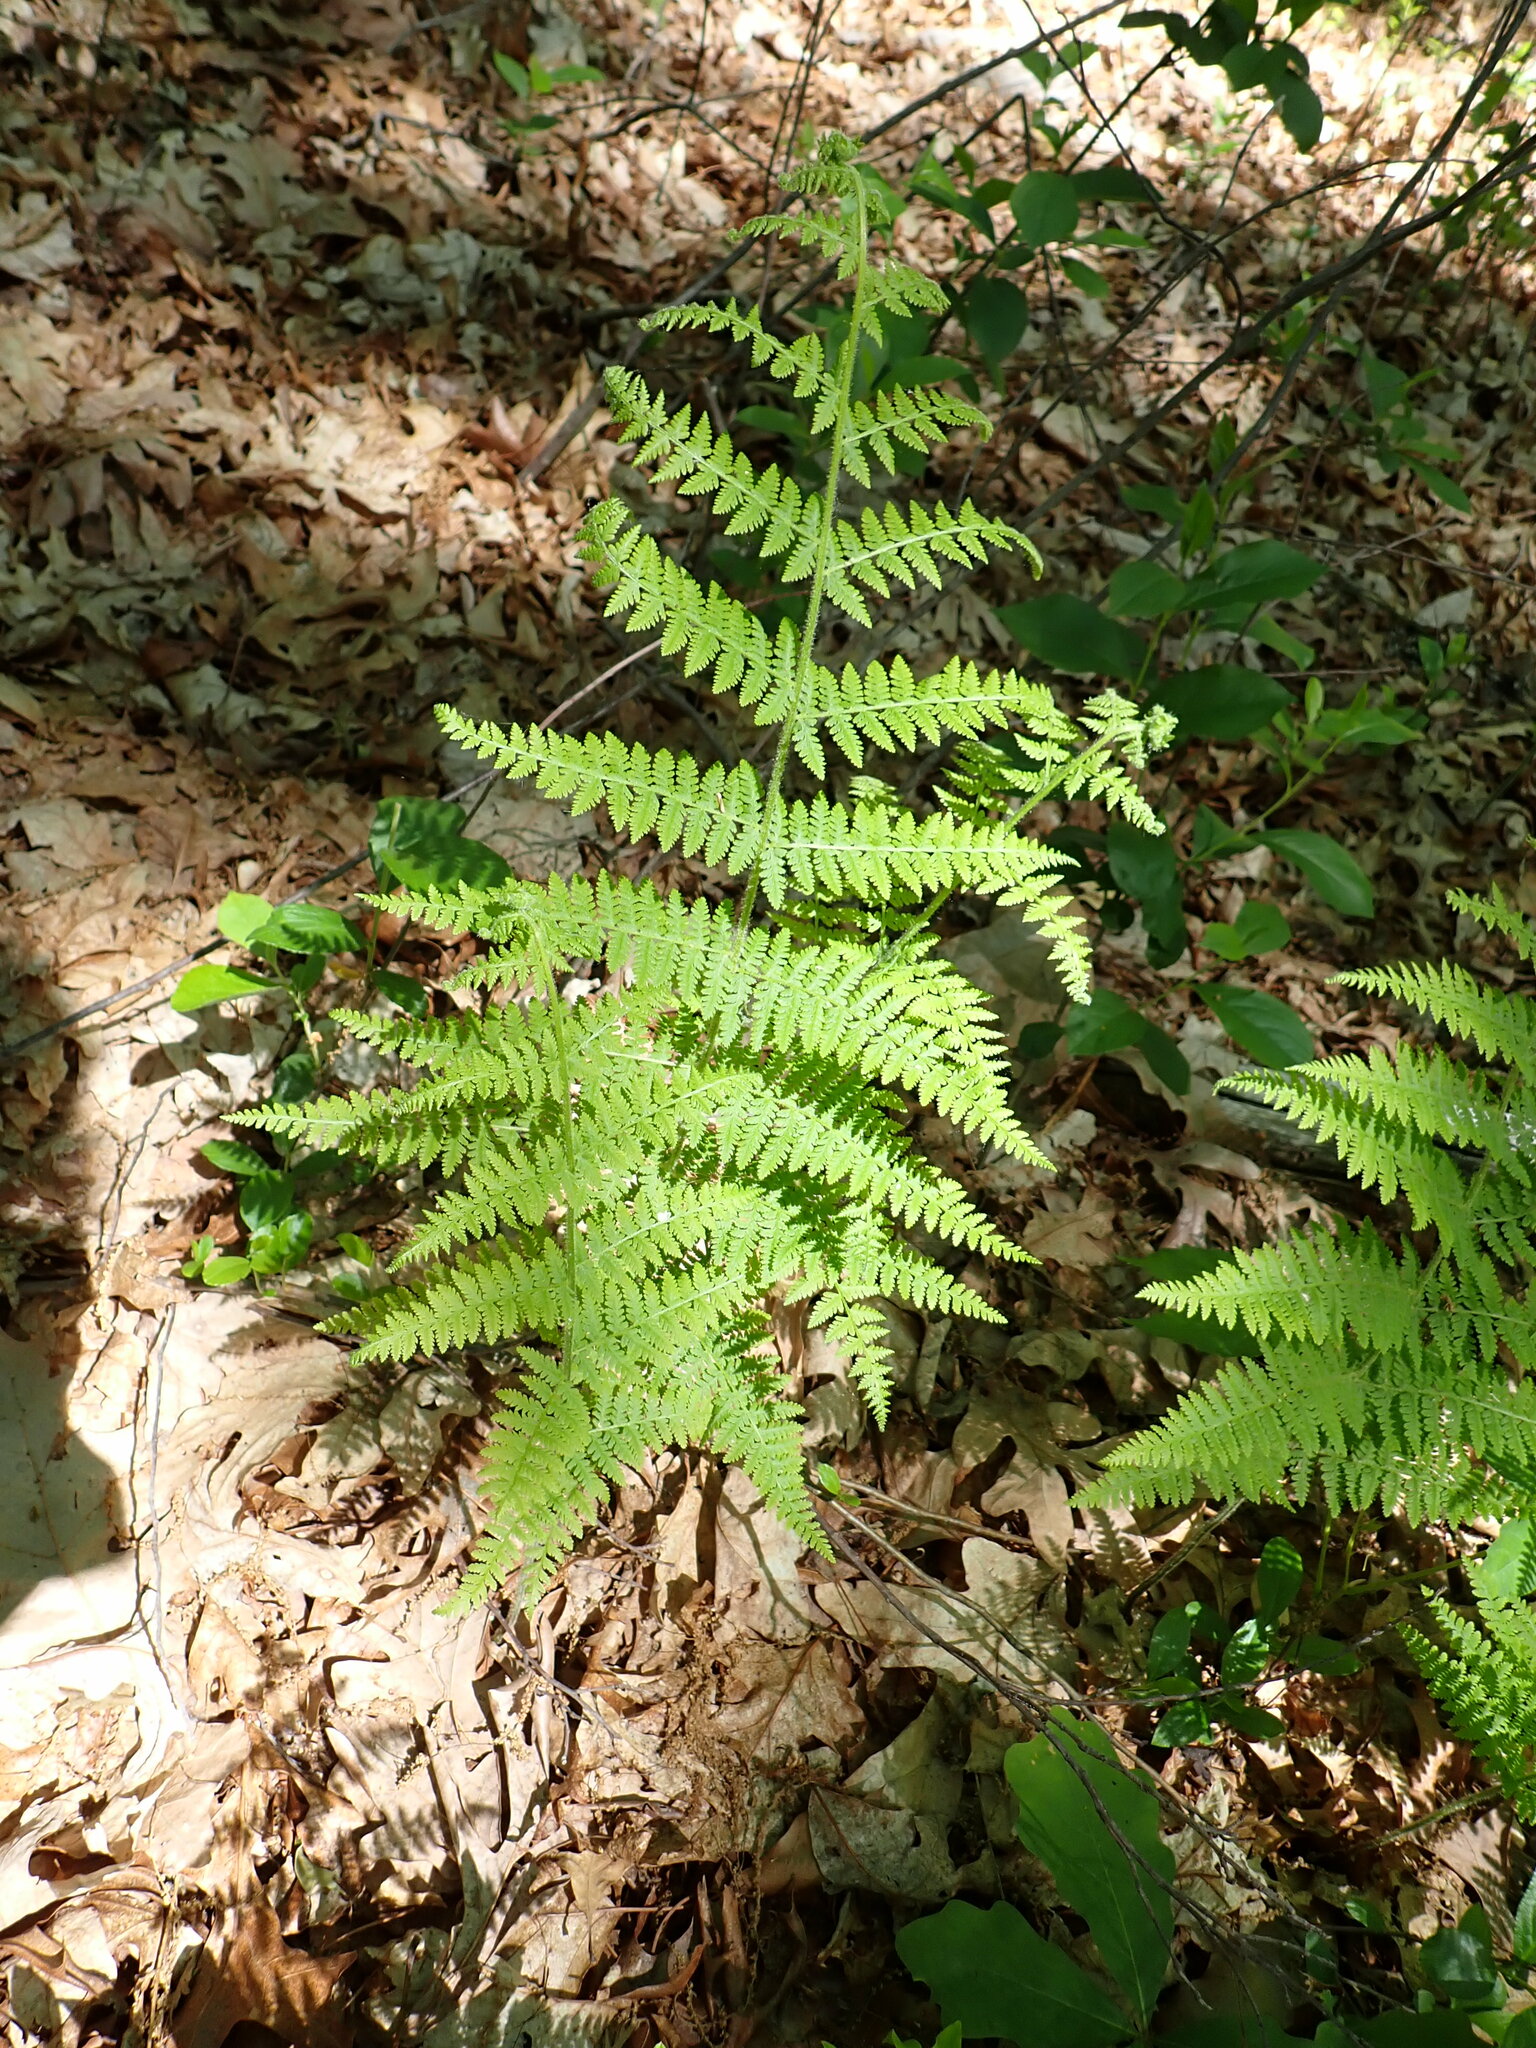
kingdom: Plantae
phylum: Tracheophyta
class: Polypodiopsida
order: Polypodiales
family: Dennstaedtiaceae
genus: Sitobolium
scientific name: Sitobolium punctilobum
